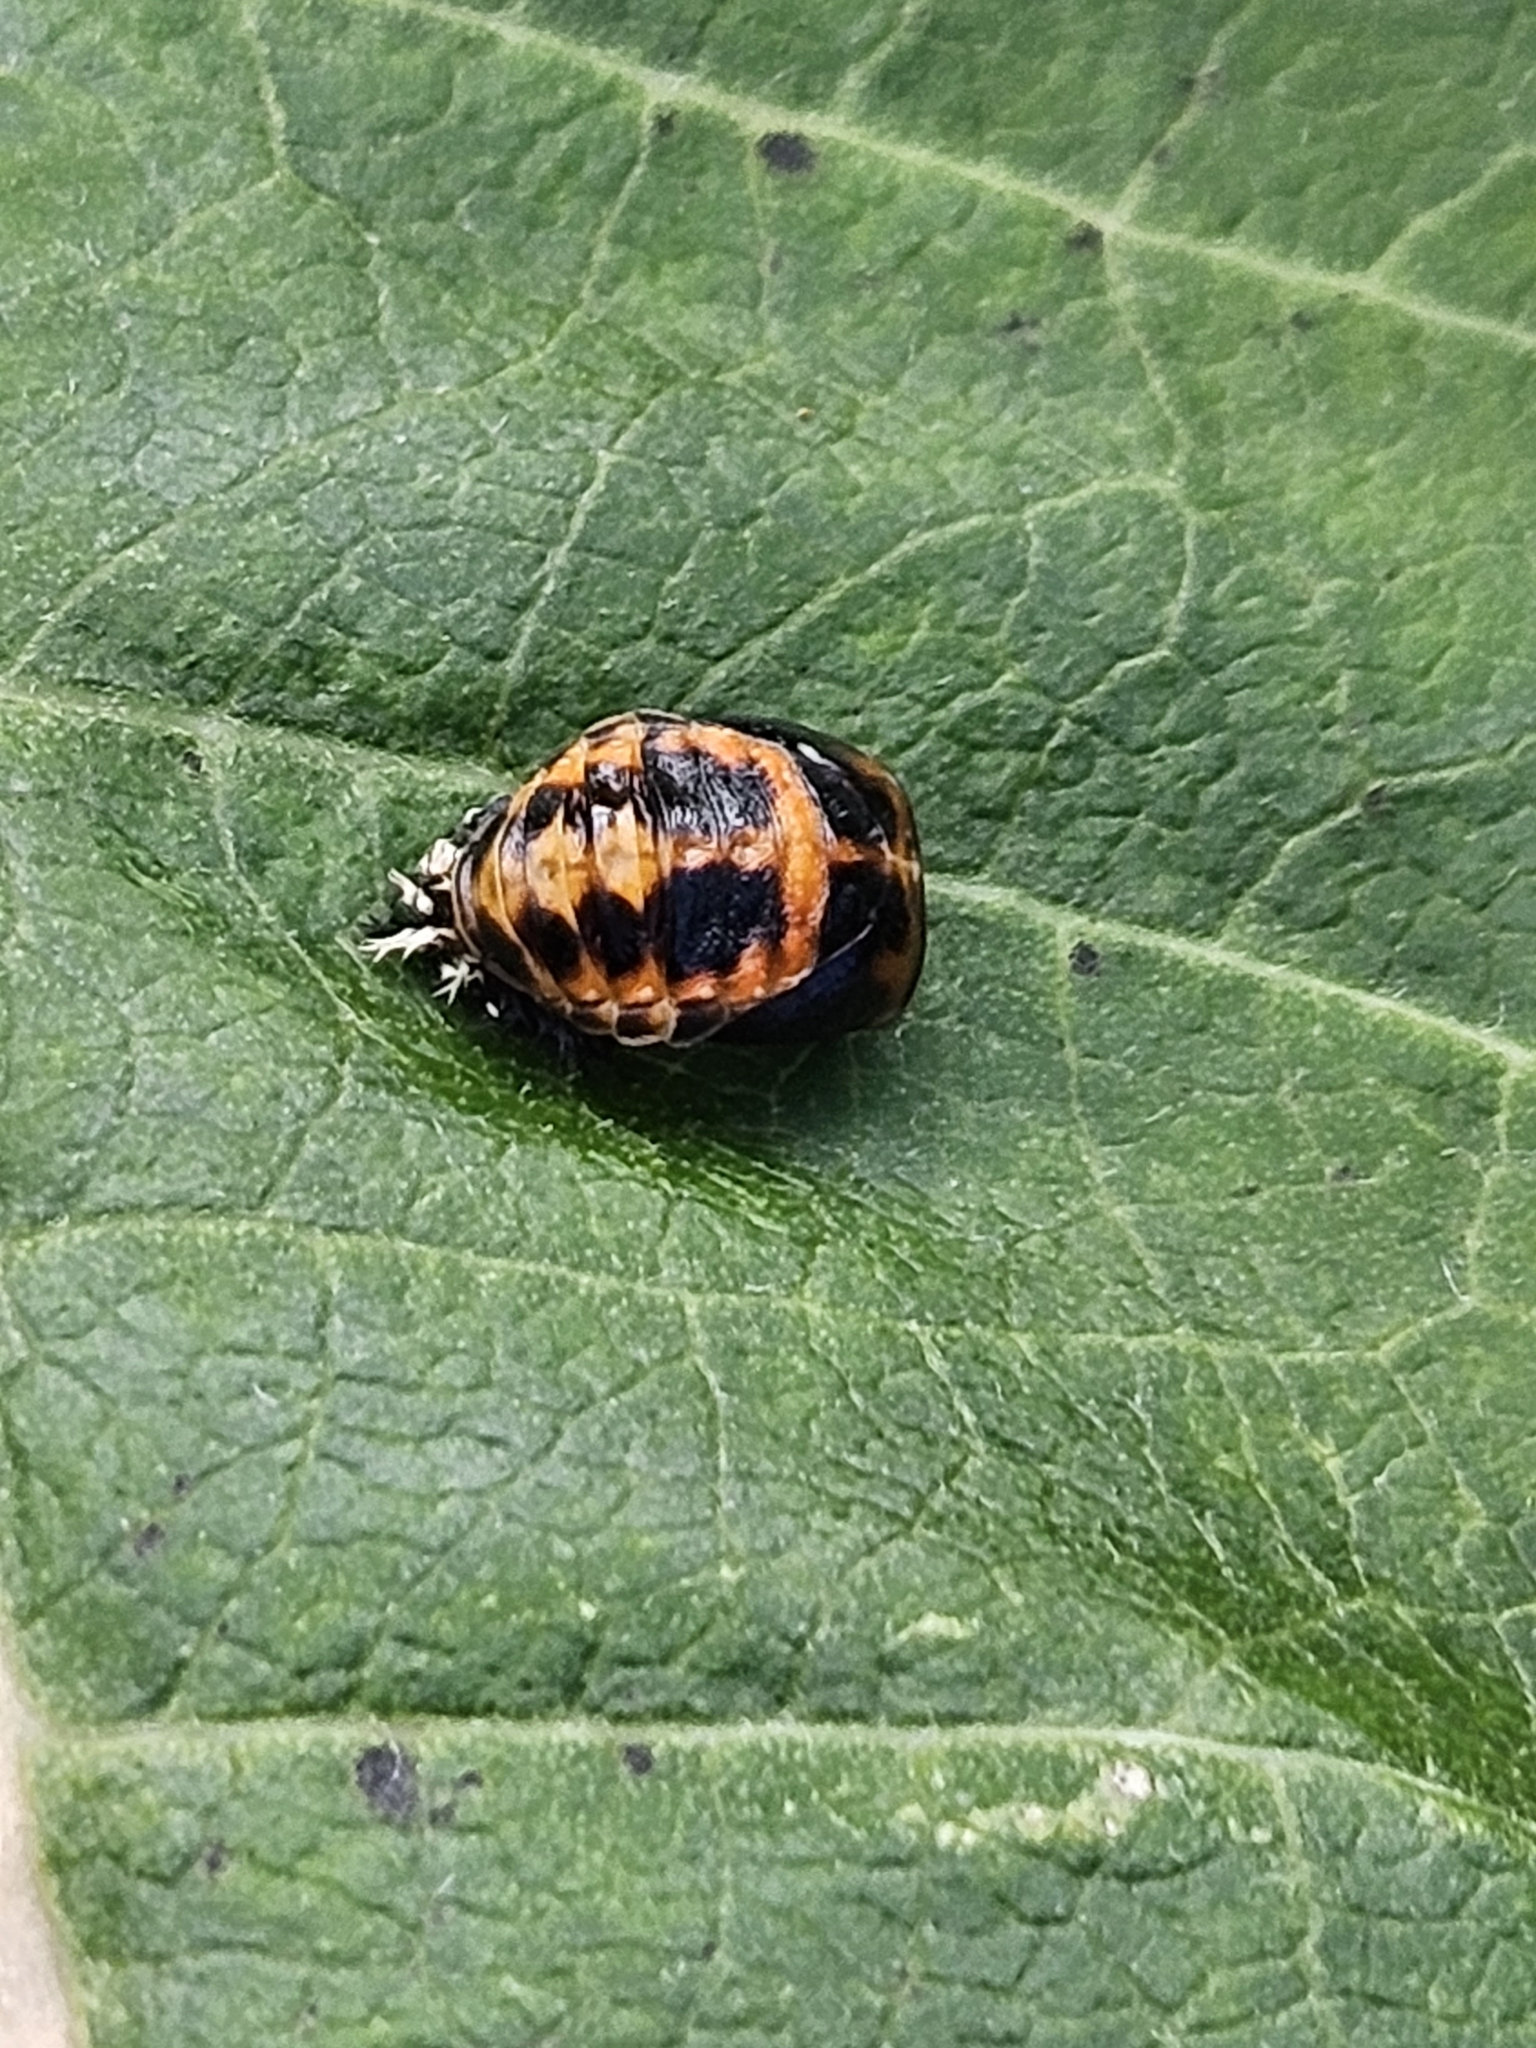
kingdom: Animalia
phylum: Arthropoda
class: Insecta
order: Coleoptera
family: Coccinellidae
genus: Harmonia
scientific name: Harmonia axyridis
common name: Harlequin ladybird
